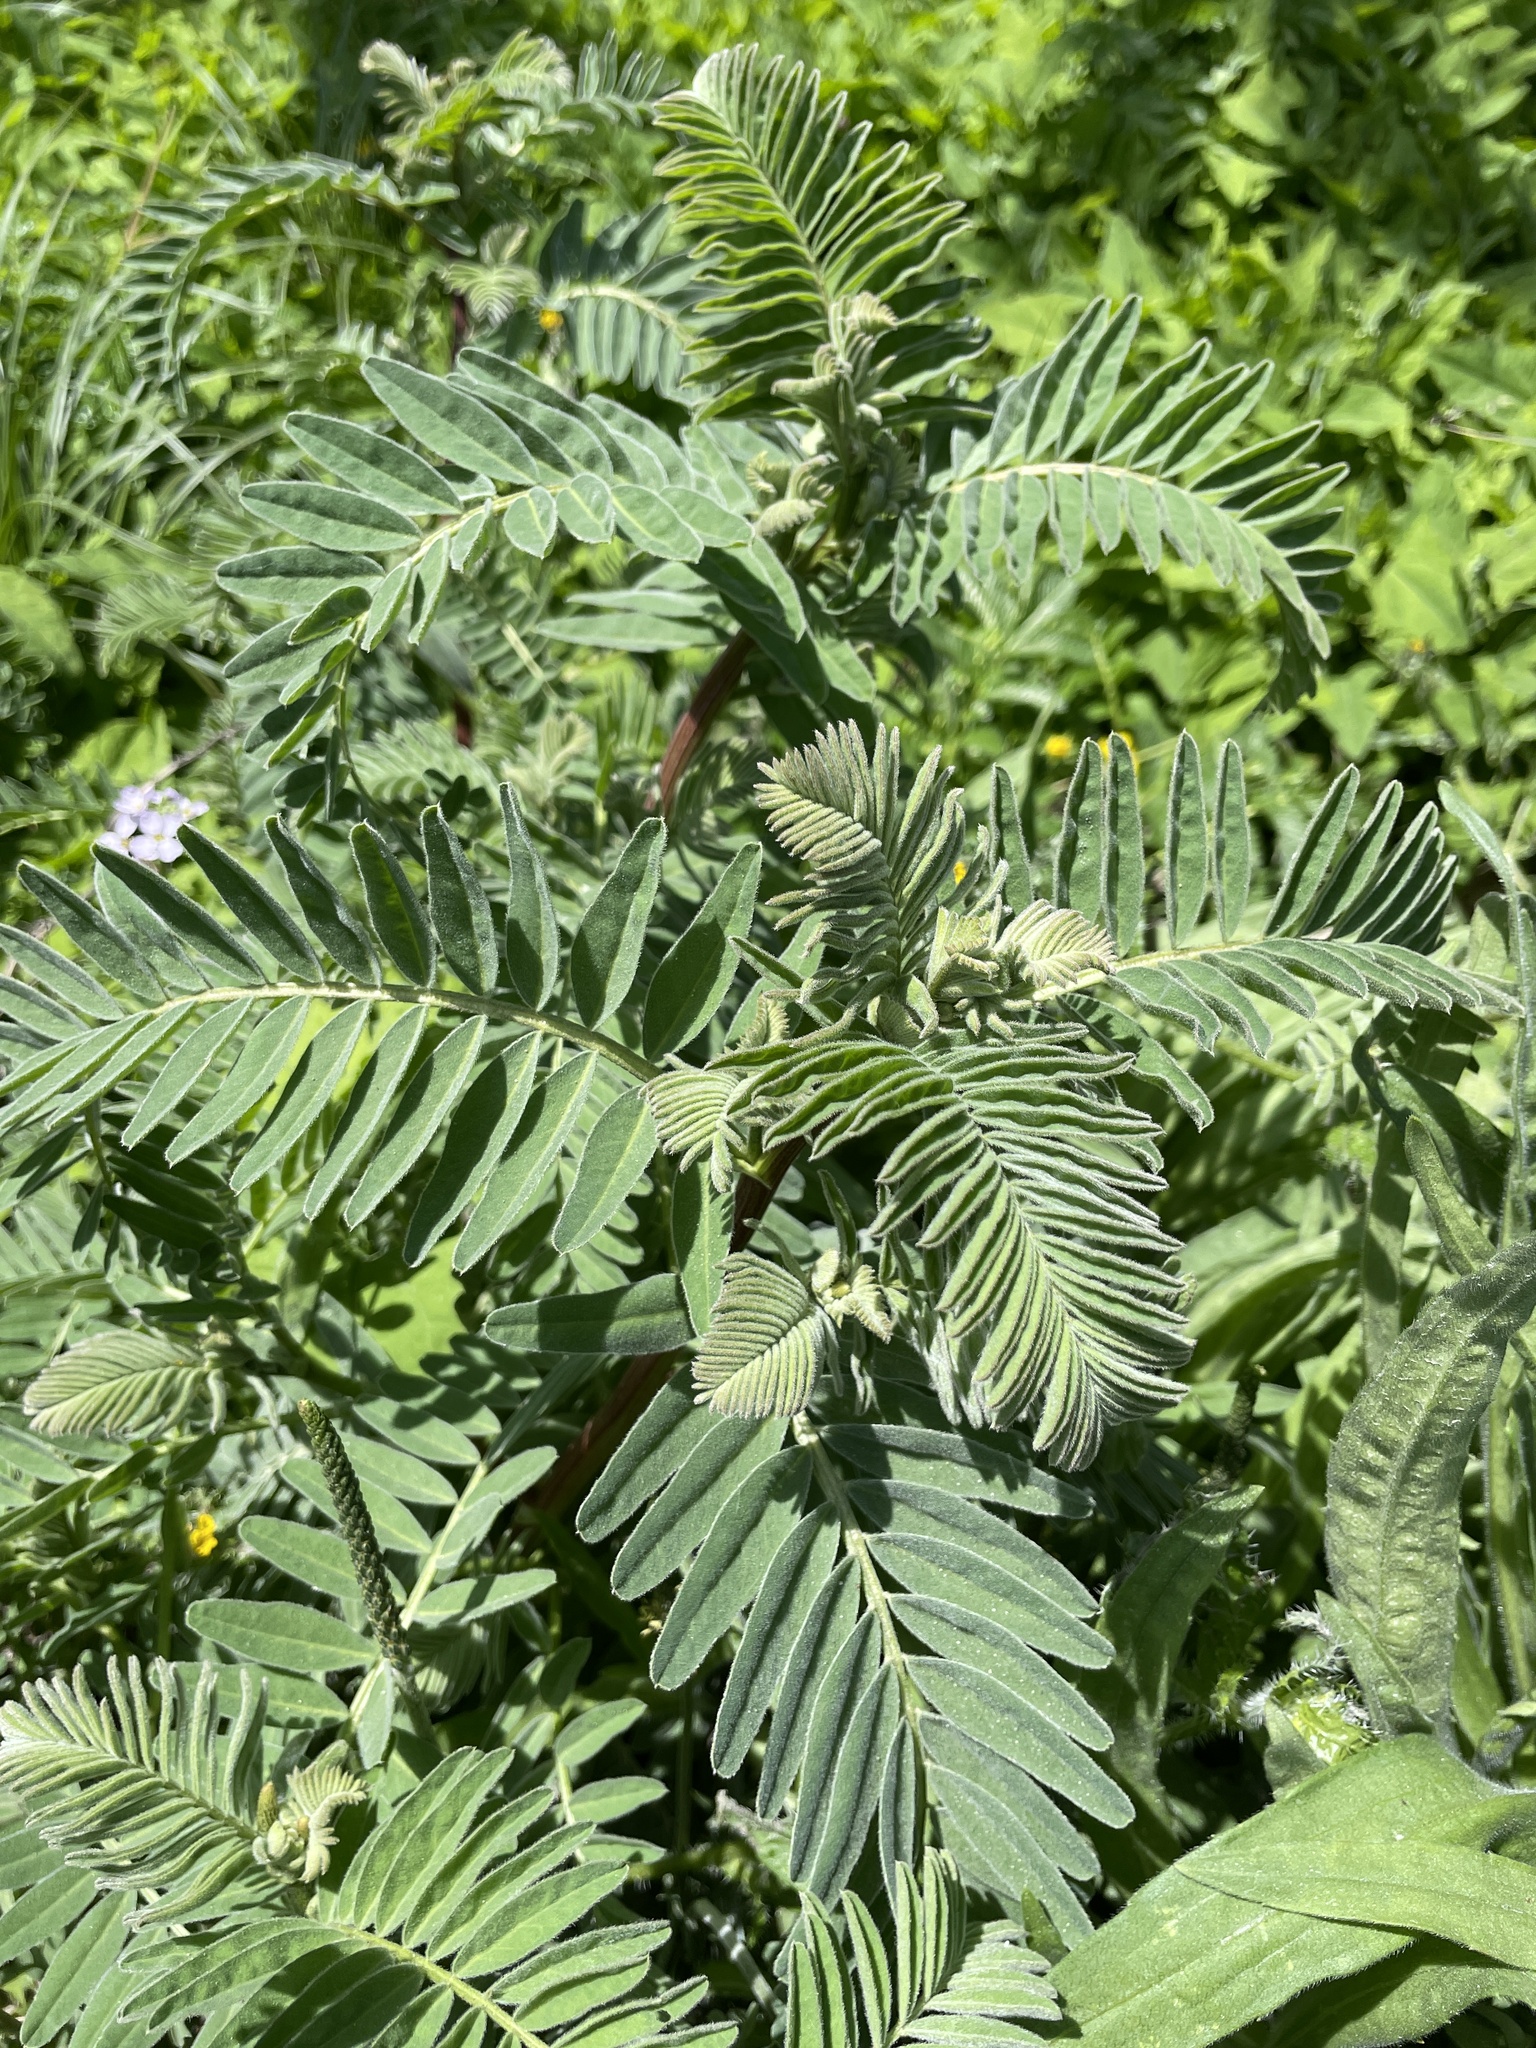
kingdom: Plantae
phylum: Tracheophyta
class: Magnoliopsida
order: Fabales
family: Fabaceae
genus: Astragalus
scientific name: Astragalus pycnostachyus
